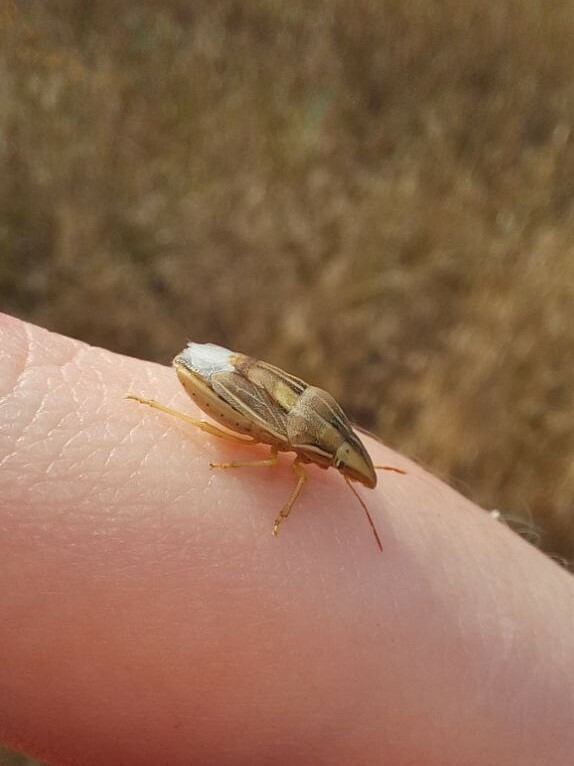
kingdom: Animalia
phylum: Arthropoda
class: Insecta
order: Hemiptera
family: Pentatomidae
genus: Aelia
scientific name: Aelia rostrata
